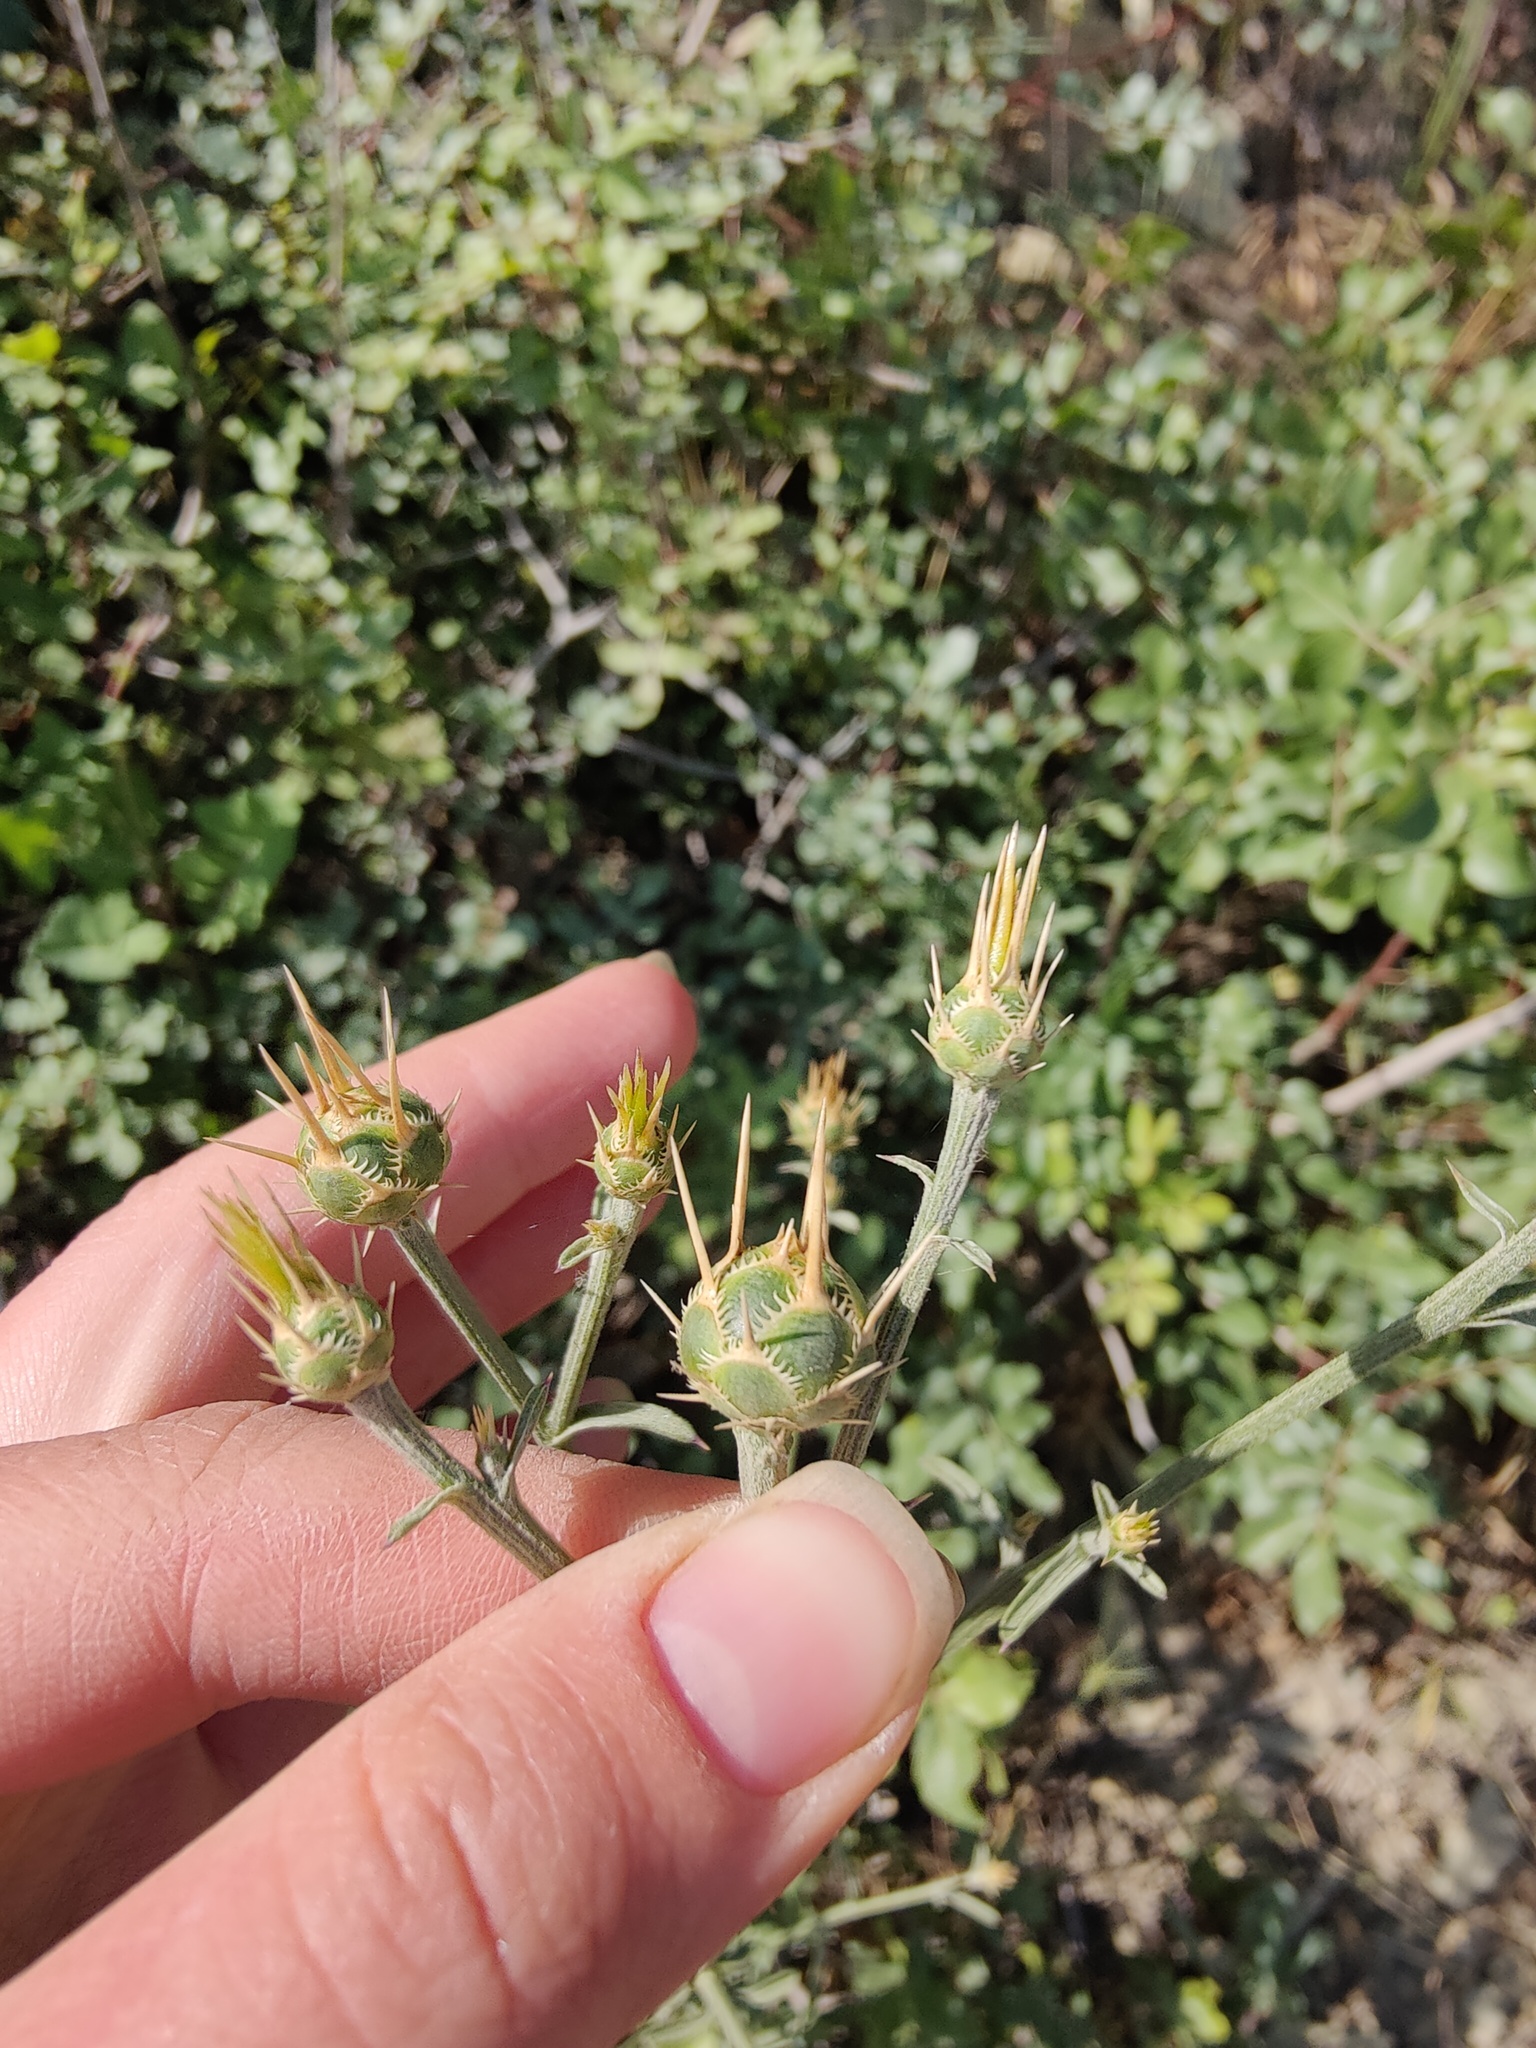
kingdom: Plantae
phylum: Tracheophyta
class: Magnoliopsida
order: Asterales
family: Asteraceae
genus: Centaurea
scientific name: Centaurea salonitana
